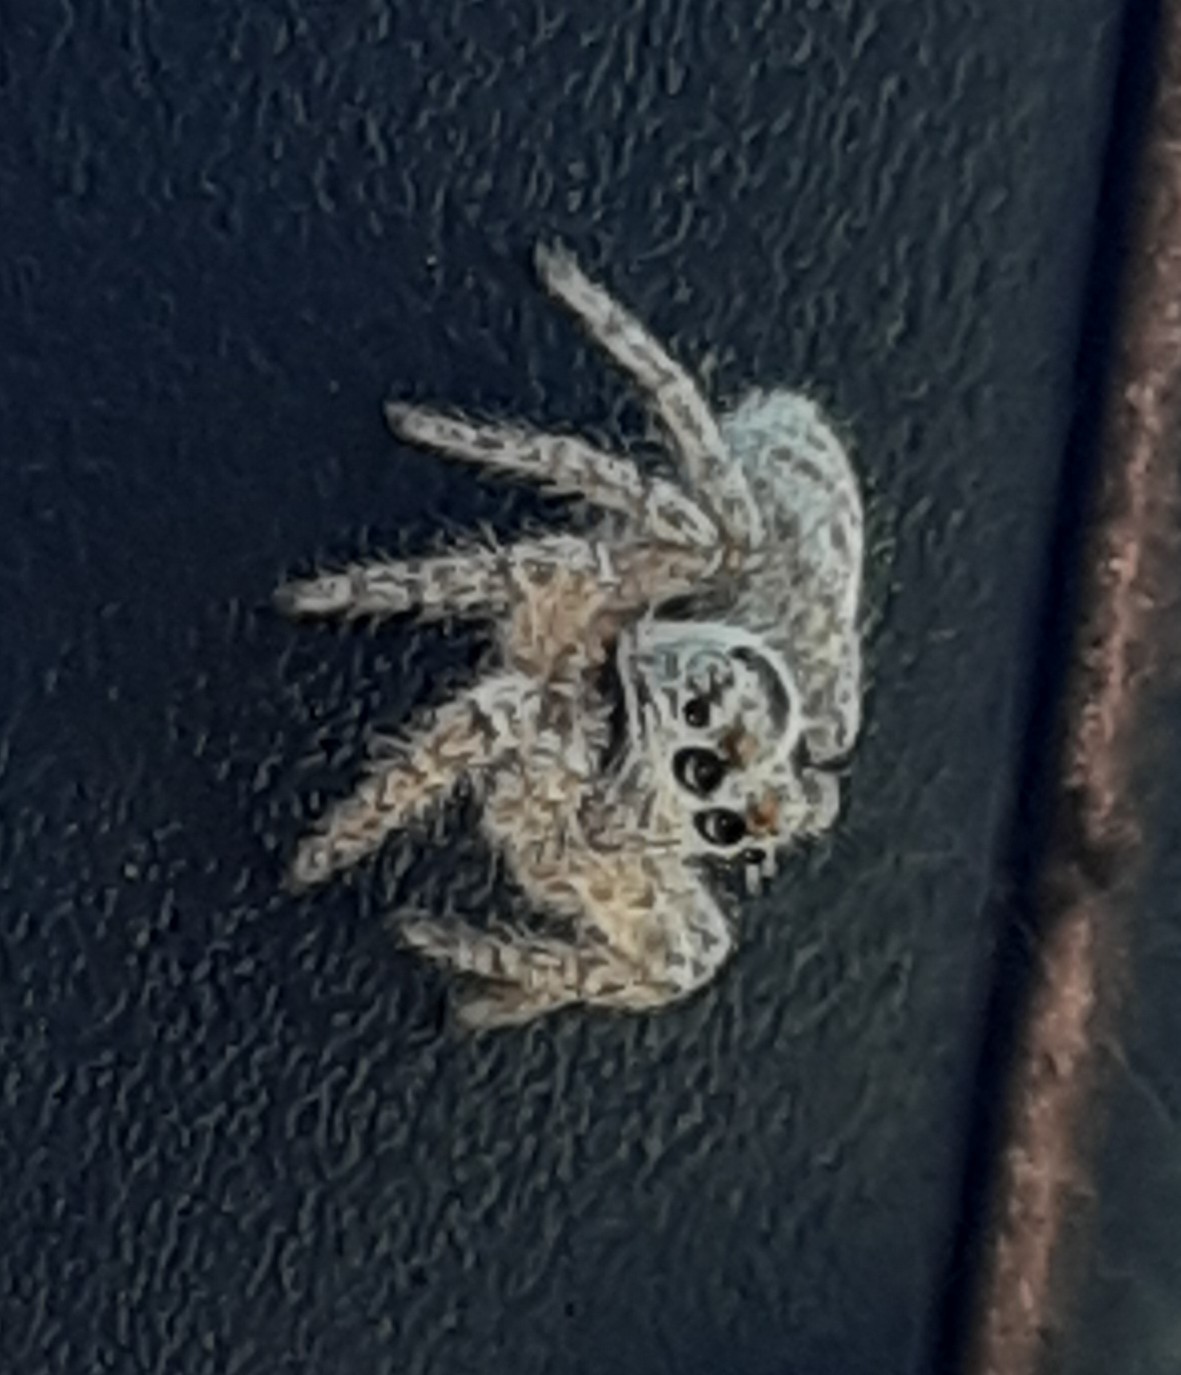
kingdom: Animalia
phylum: Arthropoda
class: Arachnida
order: Araneae
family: Salticidae
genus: Philaeus
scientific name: Philaeus chrysops
